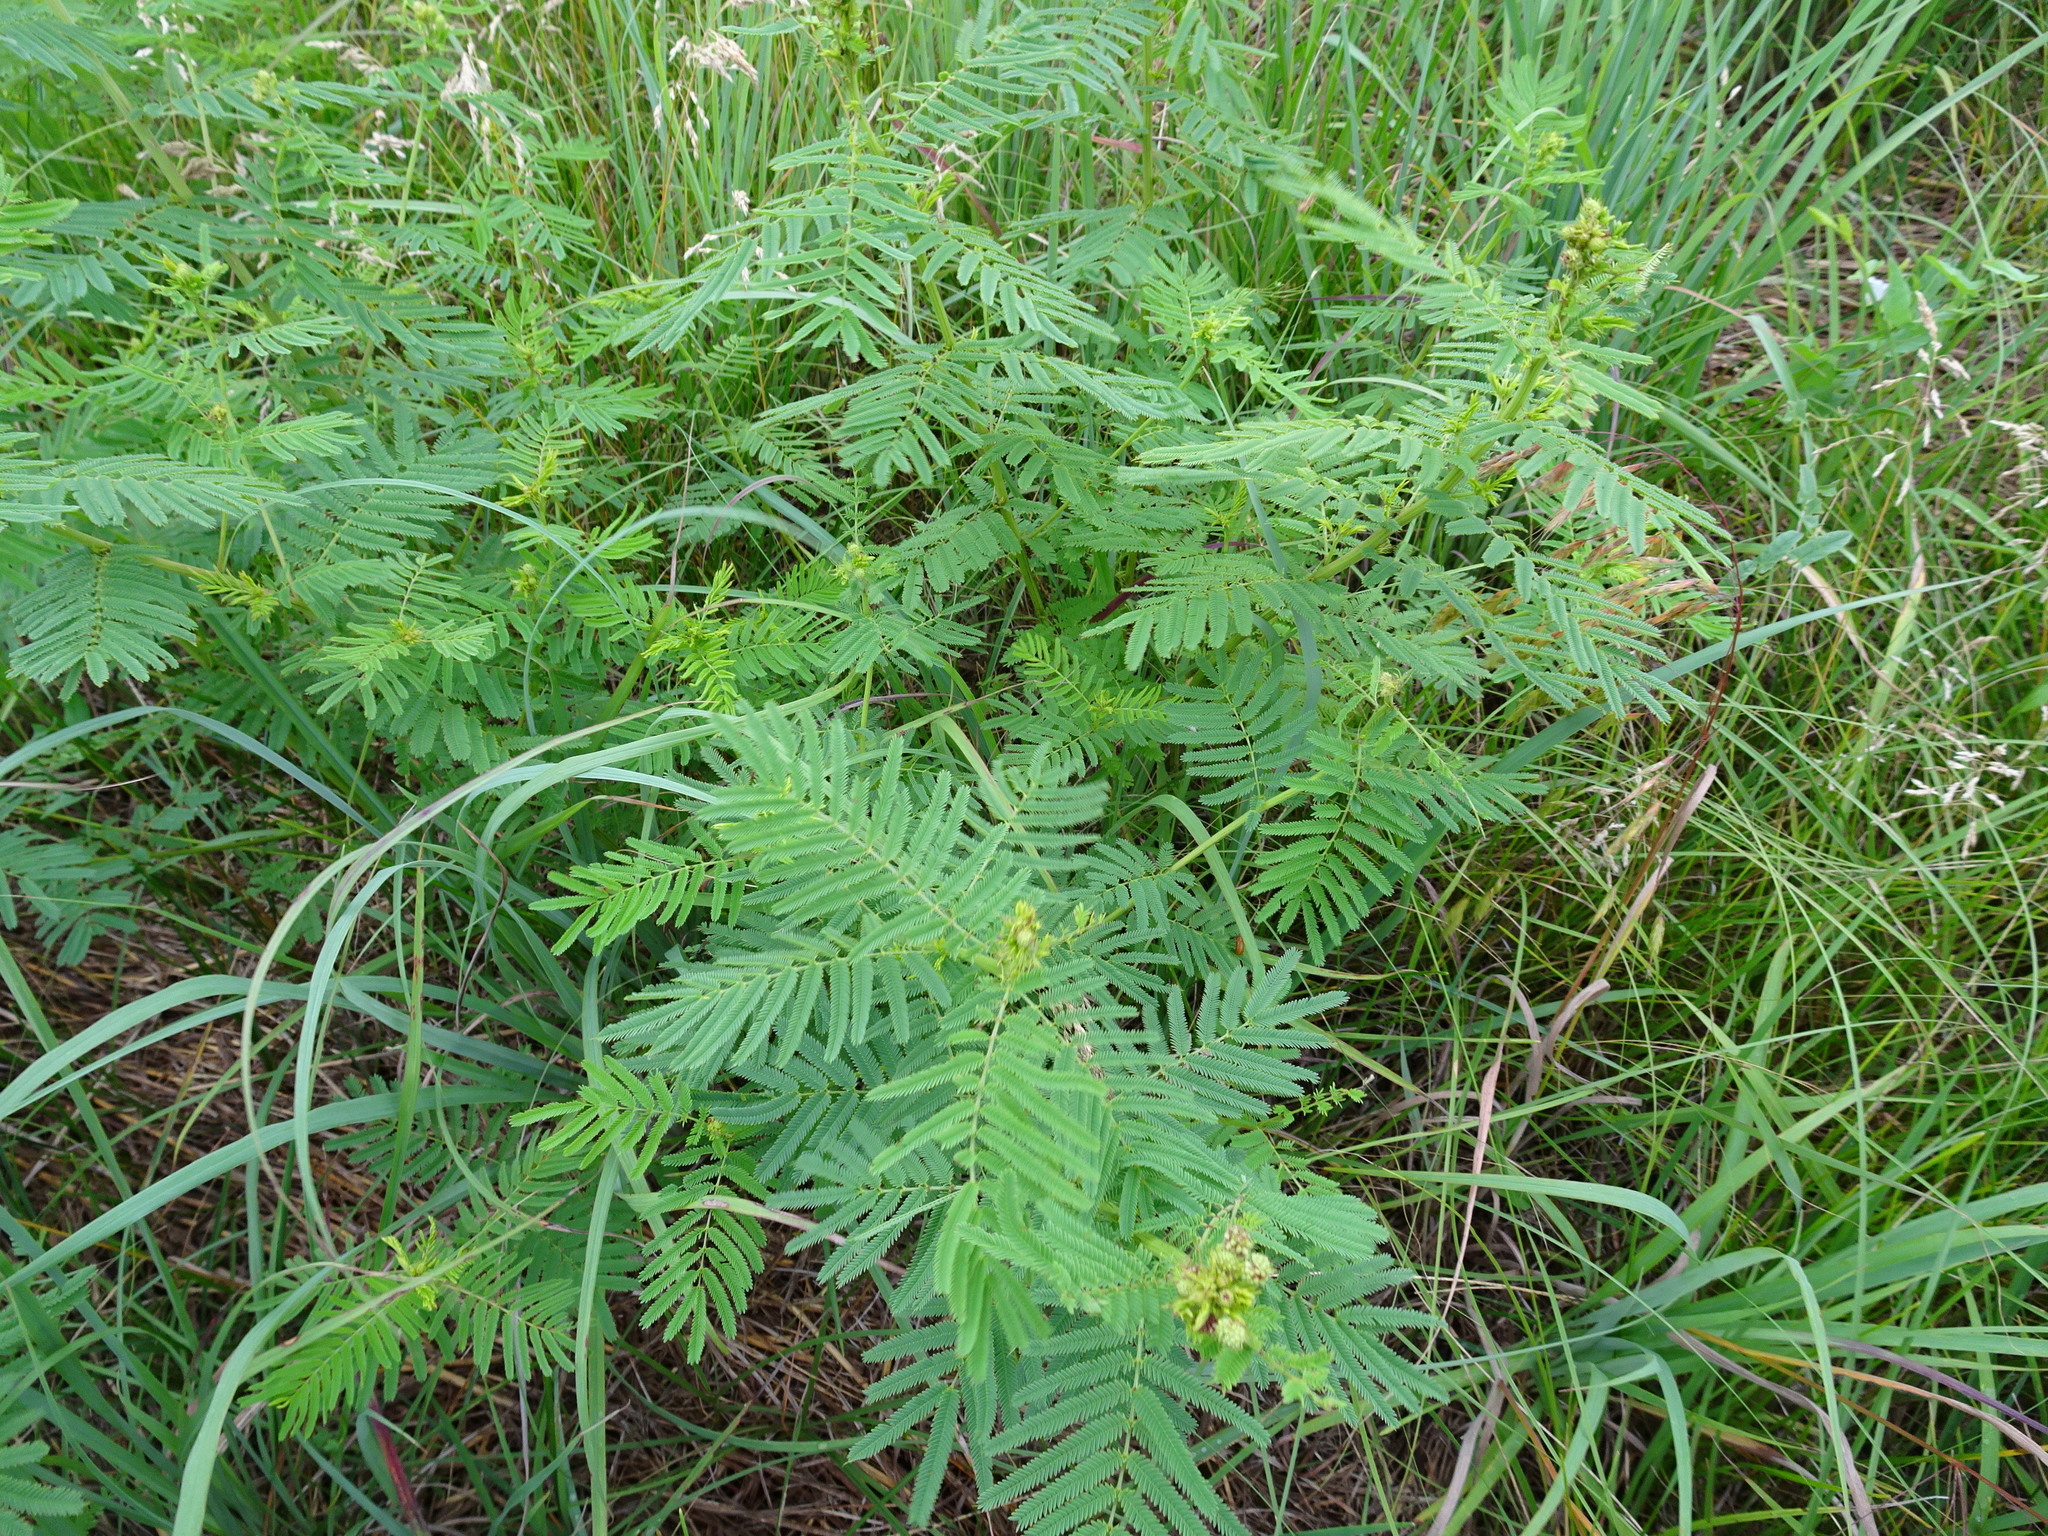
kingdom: Plantae
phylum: Tracheophyta
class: Magnoliopsida
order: Fabales
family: Fabaceae
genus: Desmanthus
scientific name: Desmanthus illinoensis
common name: Illinois bundle-flower
